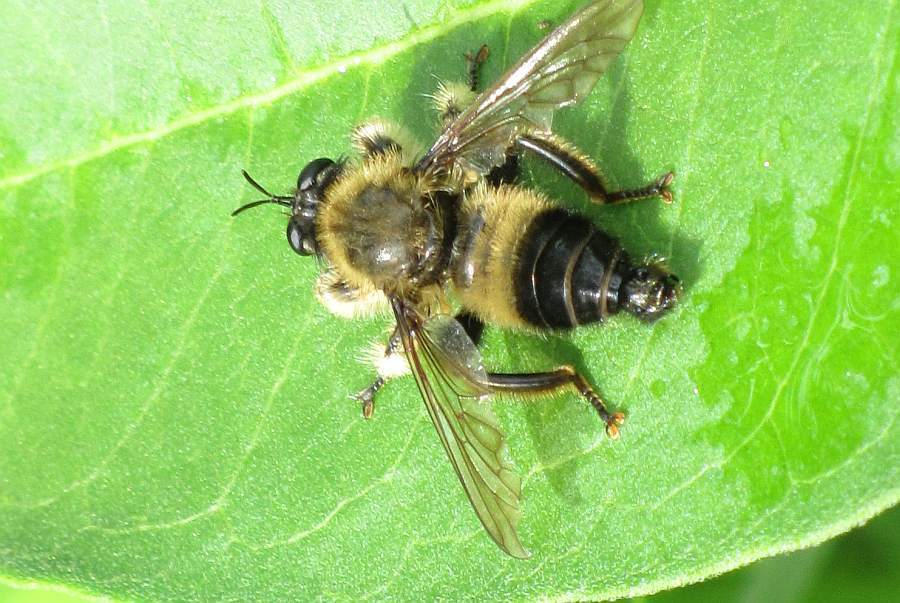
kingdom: Animalia
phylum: Arthropoda
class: Insecta
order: Diptera
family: Asilidae
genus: Laphria
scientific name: Laphria sacrator
